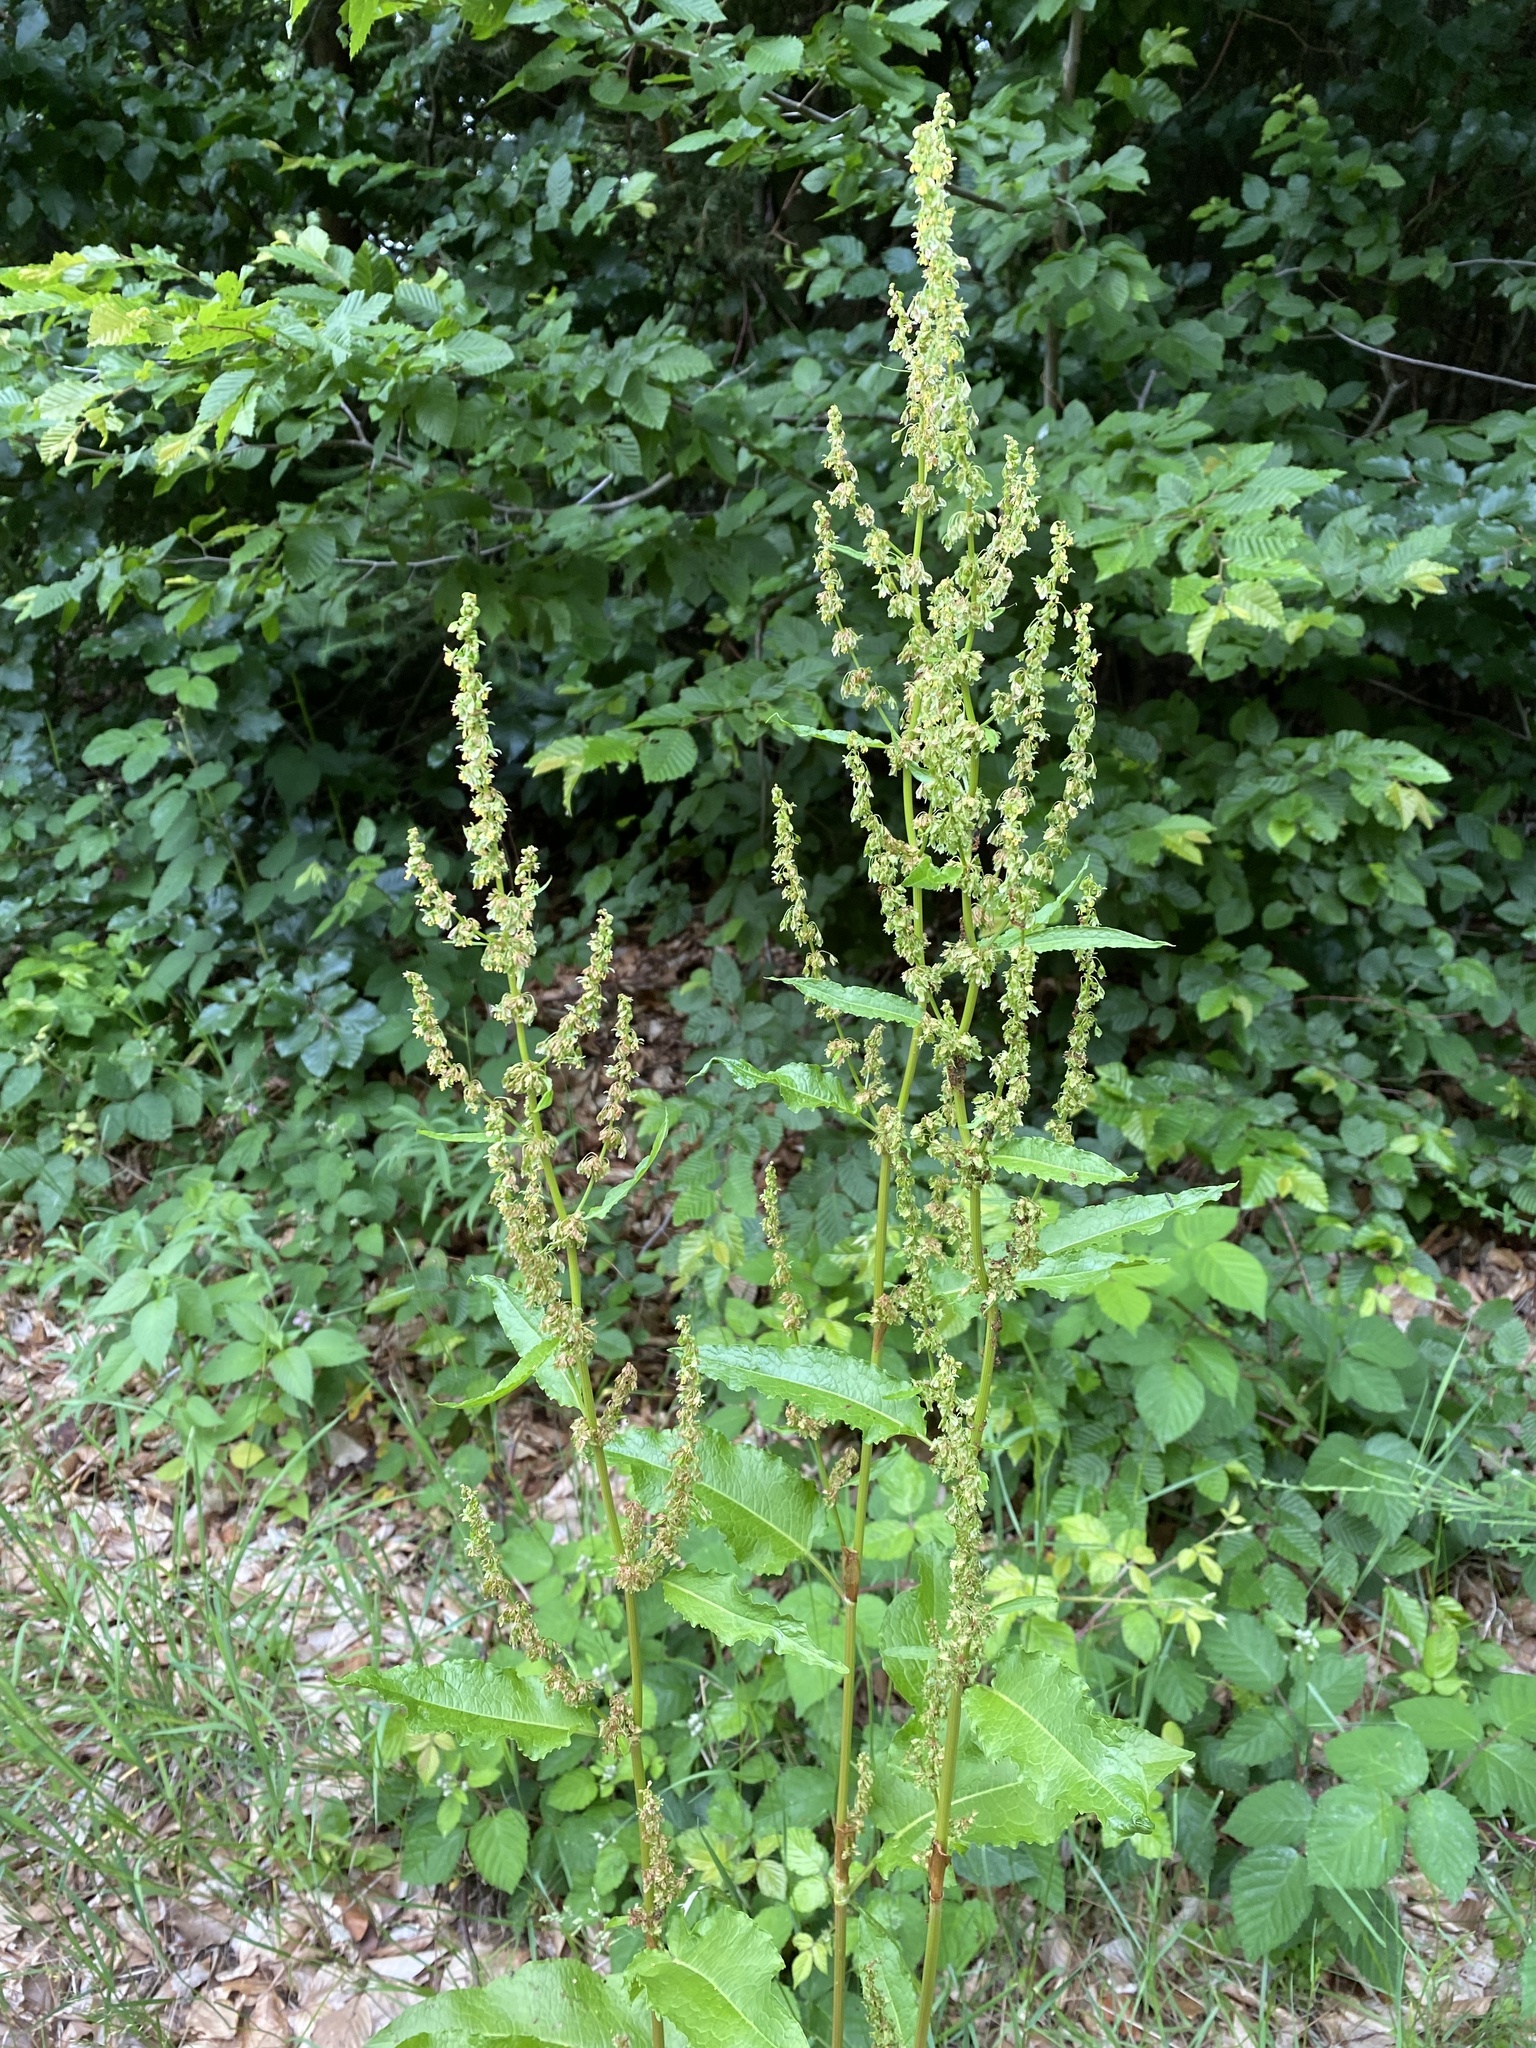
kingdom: Plantae
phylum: Tracheophyta
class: Magnoliopsida
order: Caryophyllales
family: Polygonaceae
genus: Rumex
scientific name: Rumex crispus
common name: Curled dock
